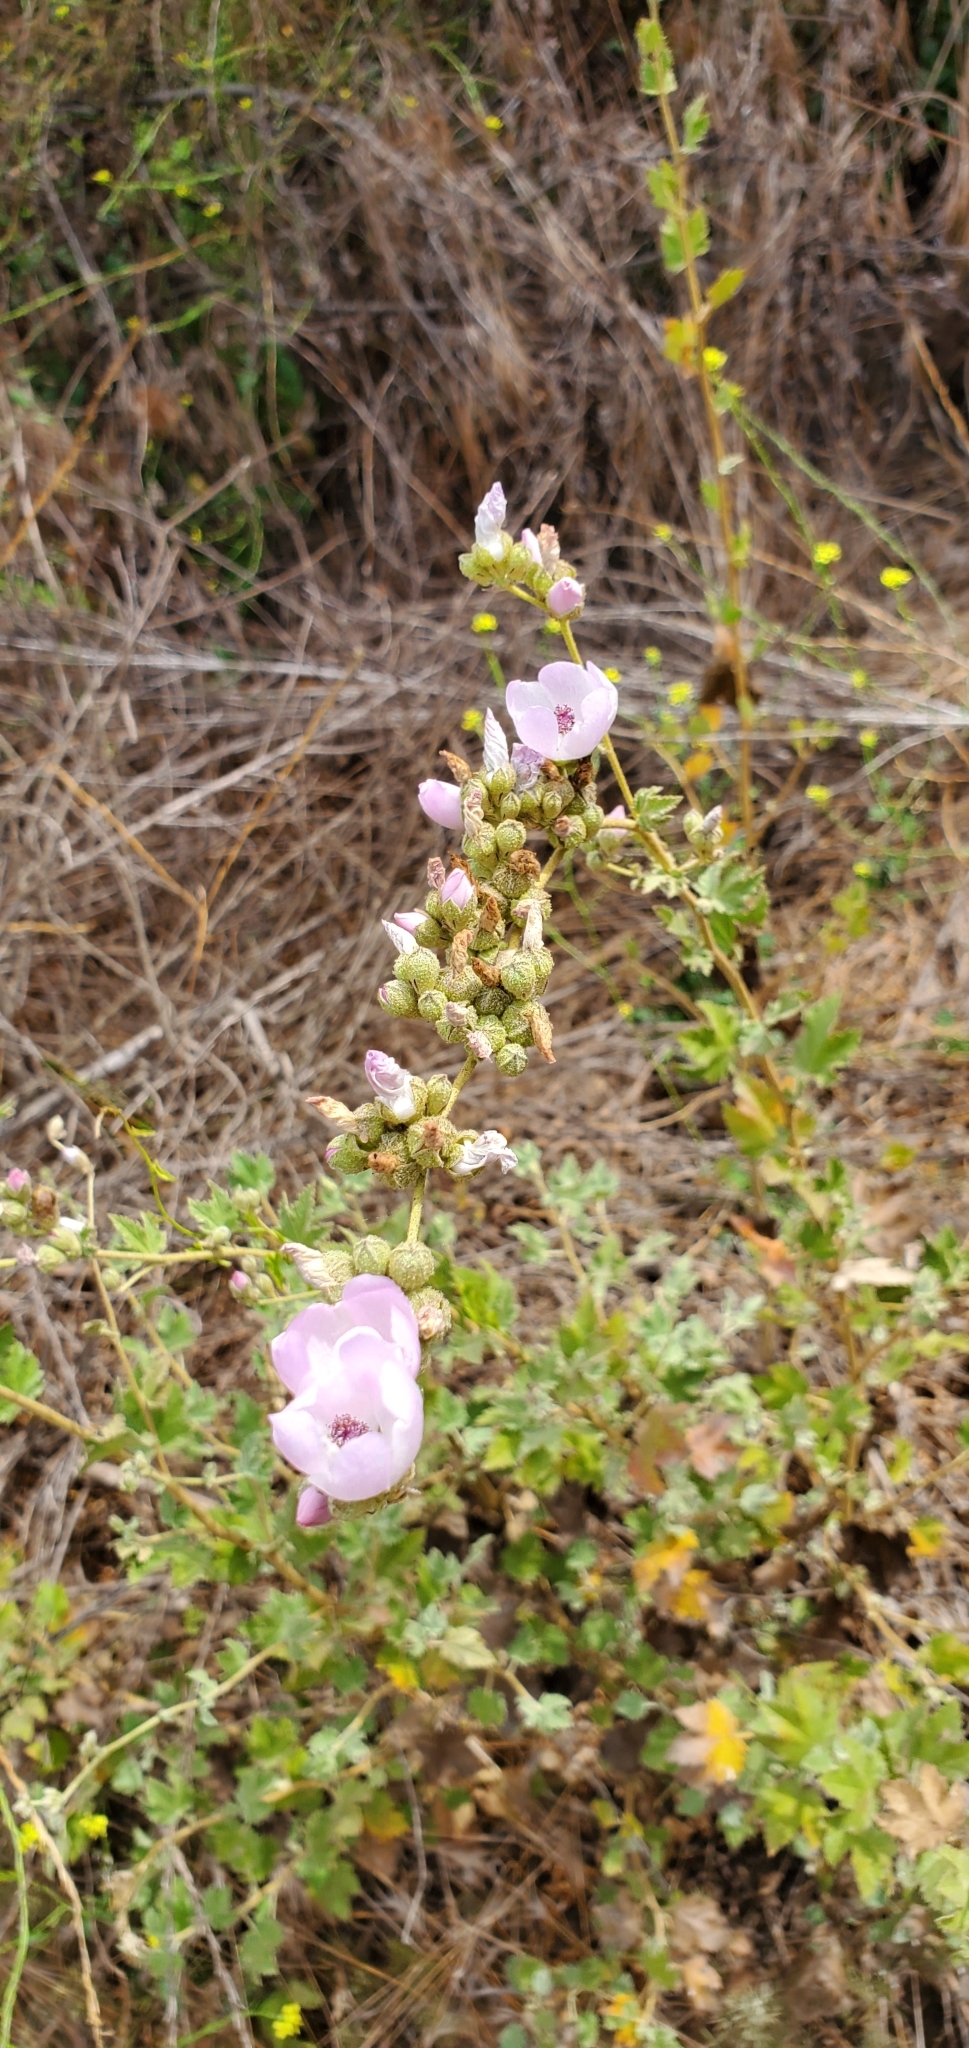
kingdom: Plantae
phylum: Tracheophyta
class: Magnoliopsida
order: Malvales
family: Malvaceae
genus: Malacothamnus
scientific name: Malacothamnus fasciculatus
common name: Sant cruz island bush-mallow
